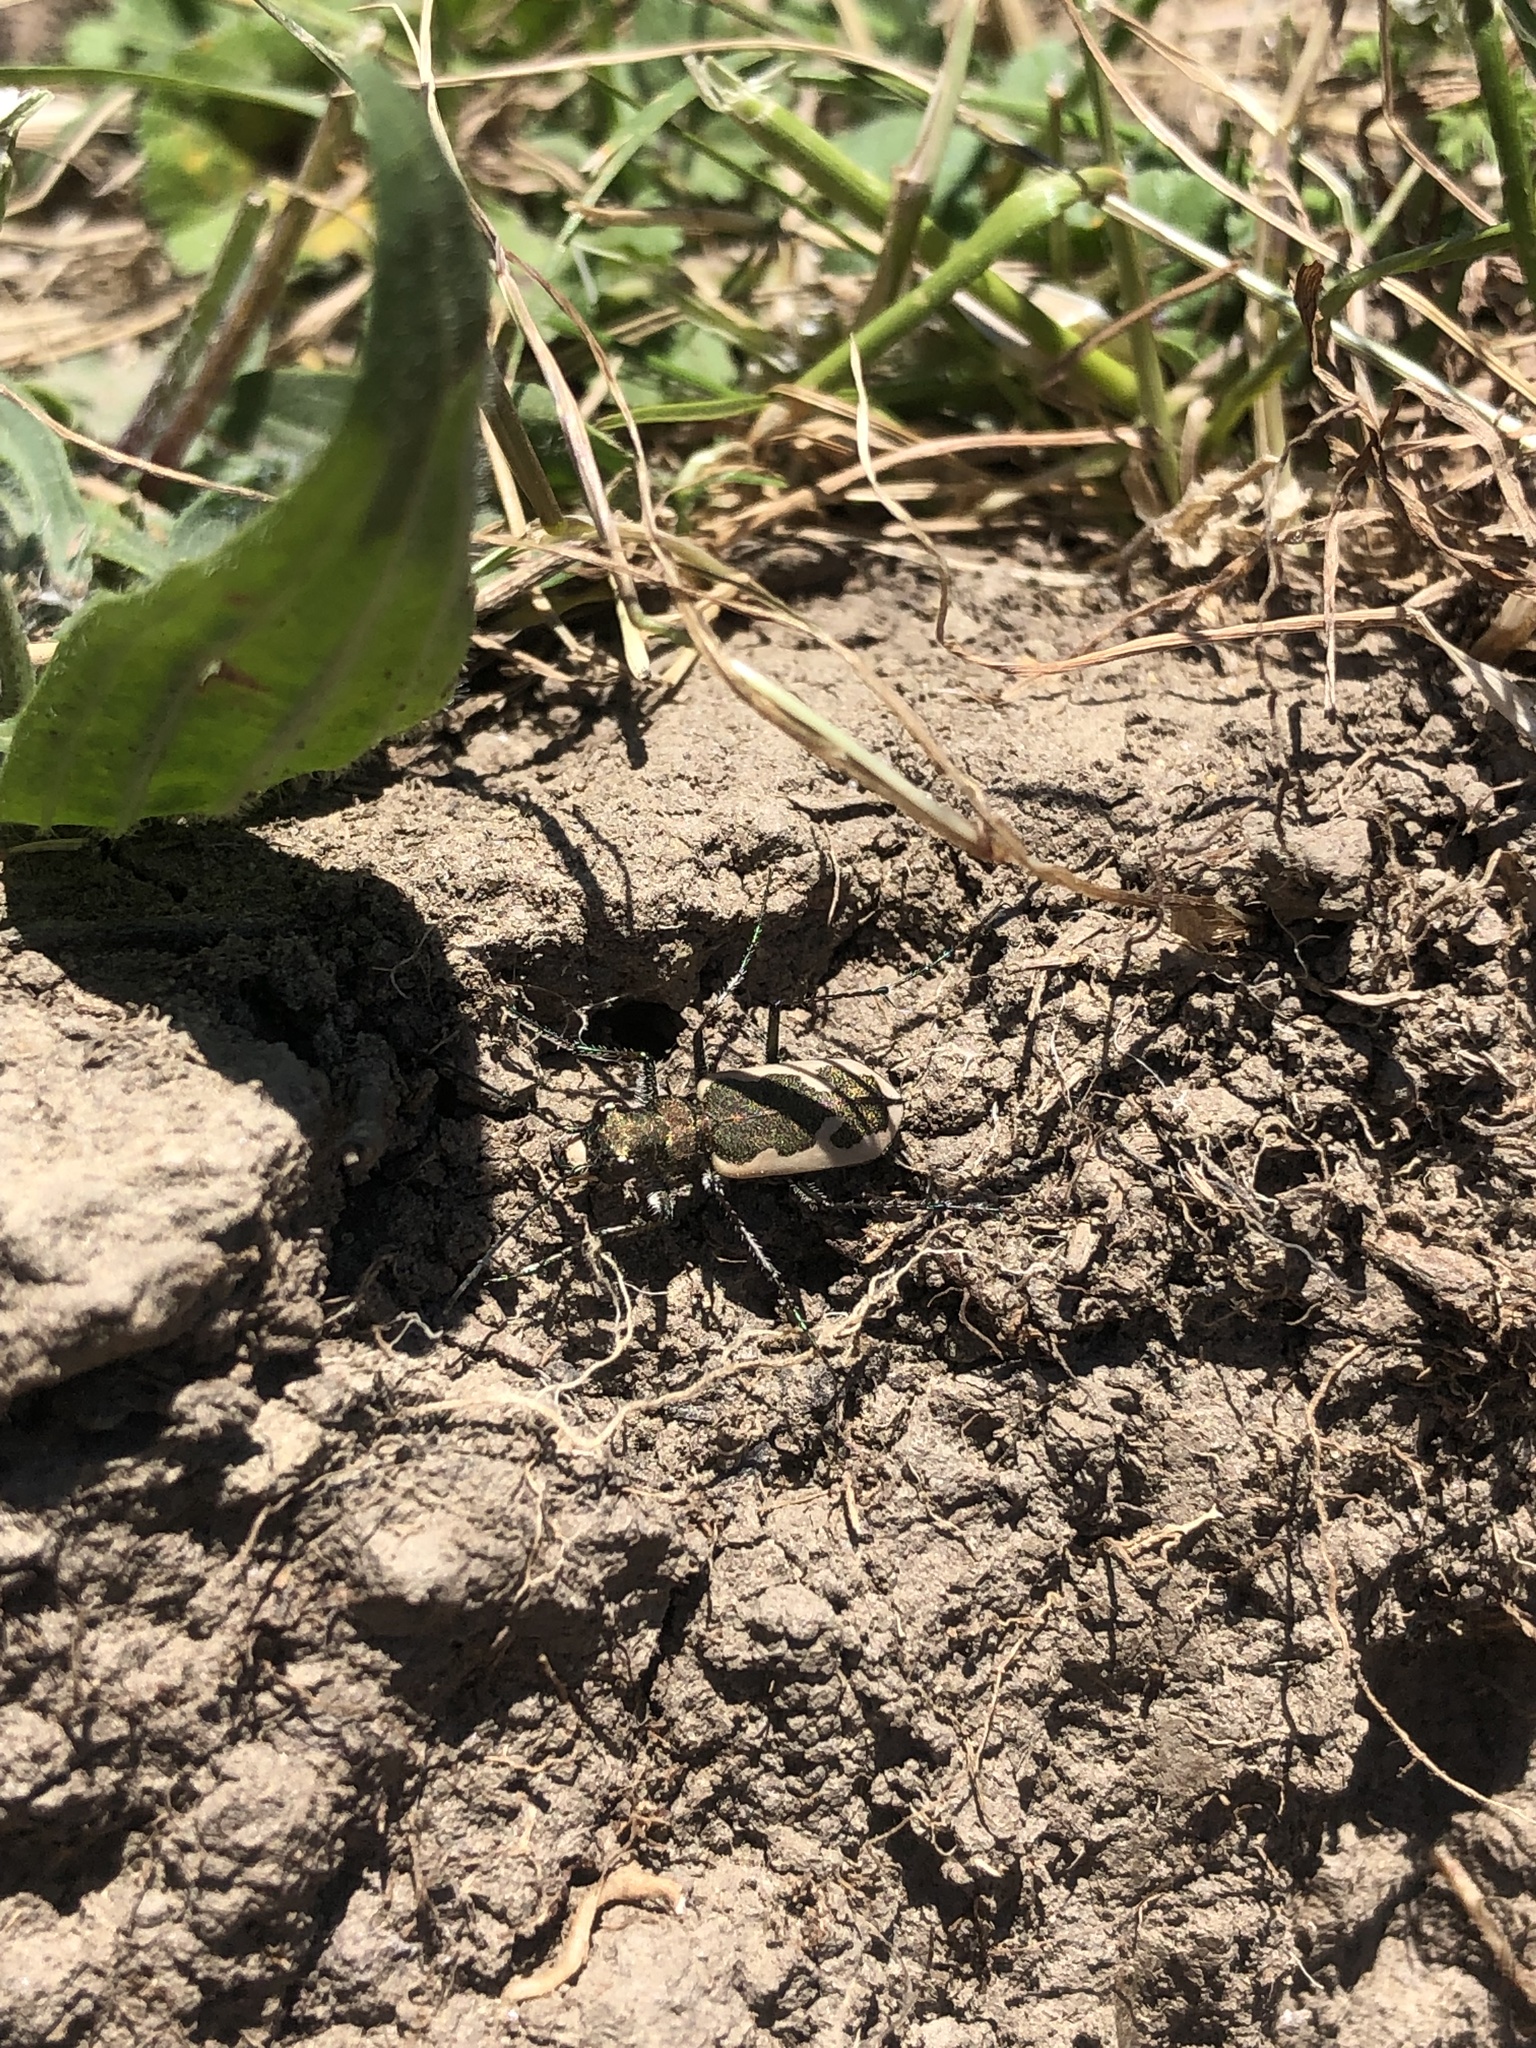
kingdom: Animalia
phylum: Arthropoda
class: Insecta
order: Coleoptera
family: Carabidae
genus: Neocicindela
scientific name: Neocicindela latecincta
